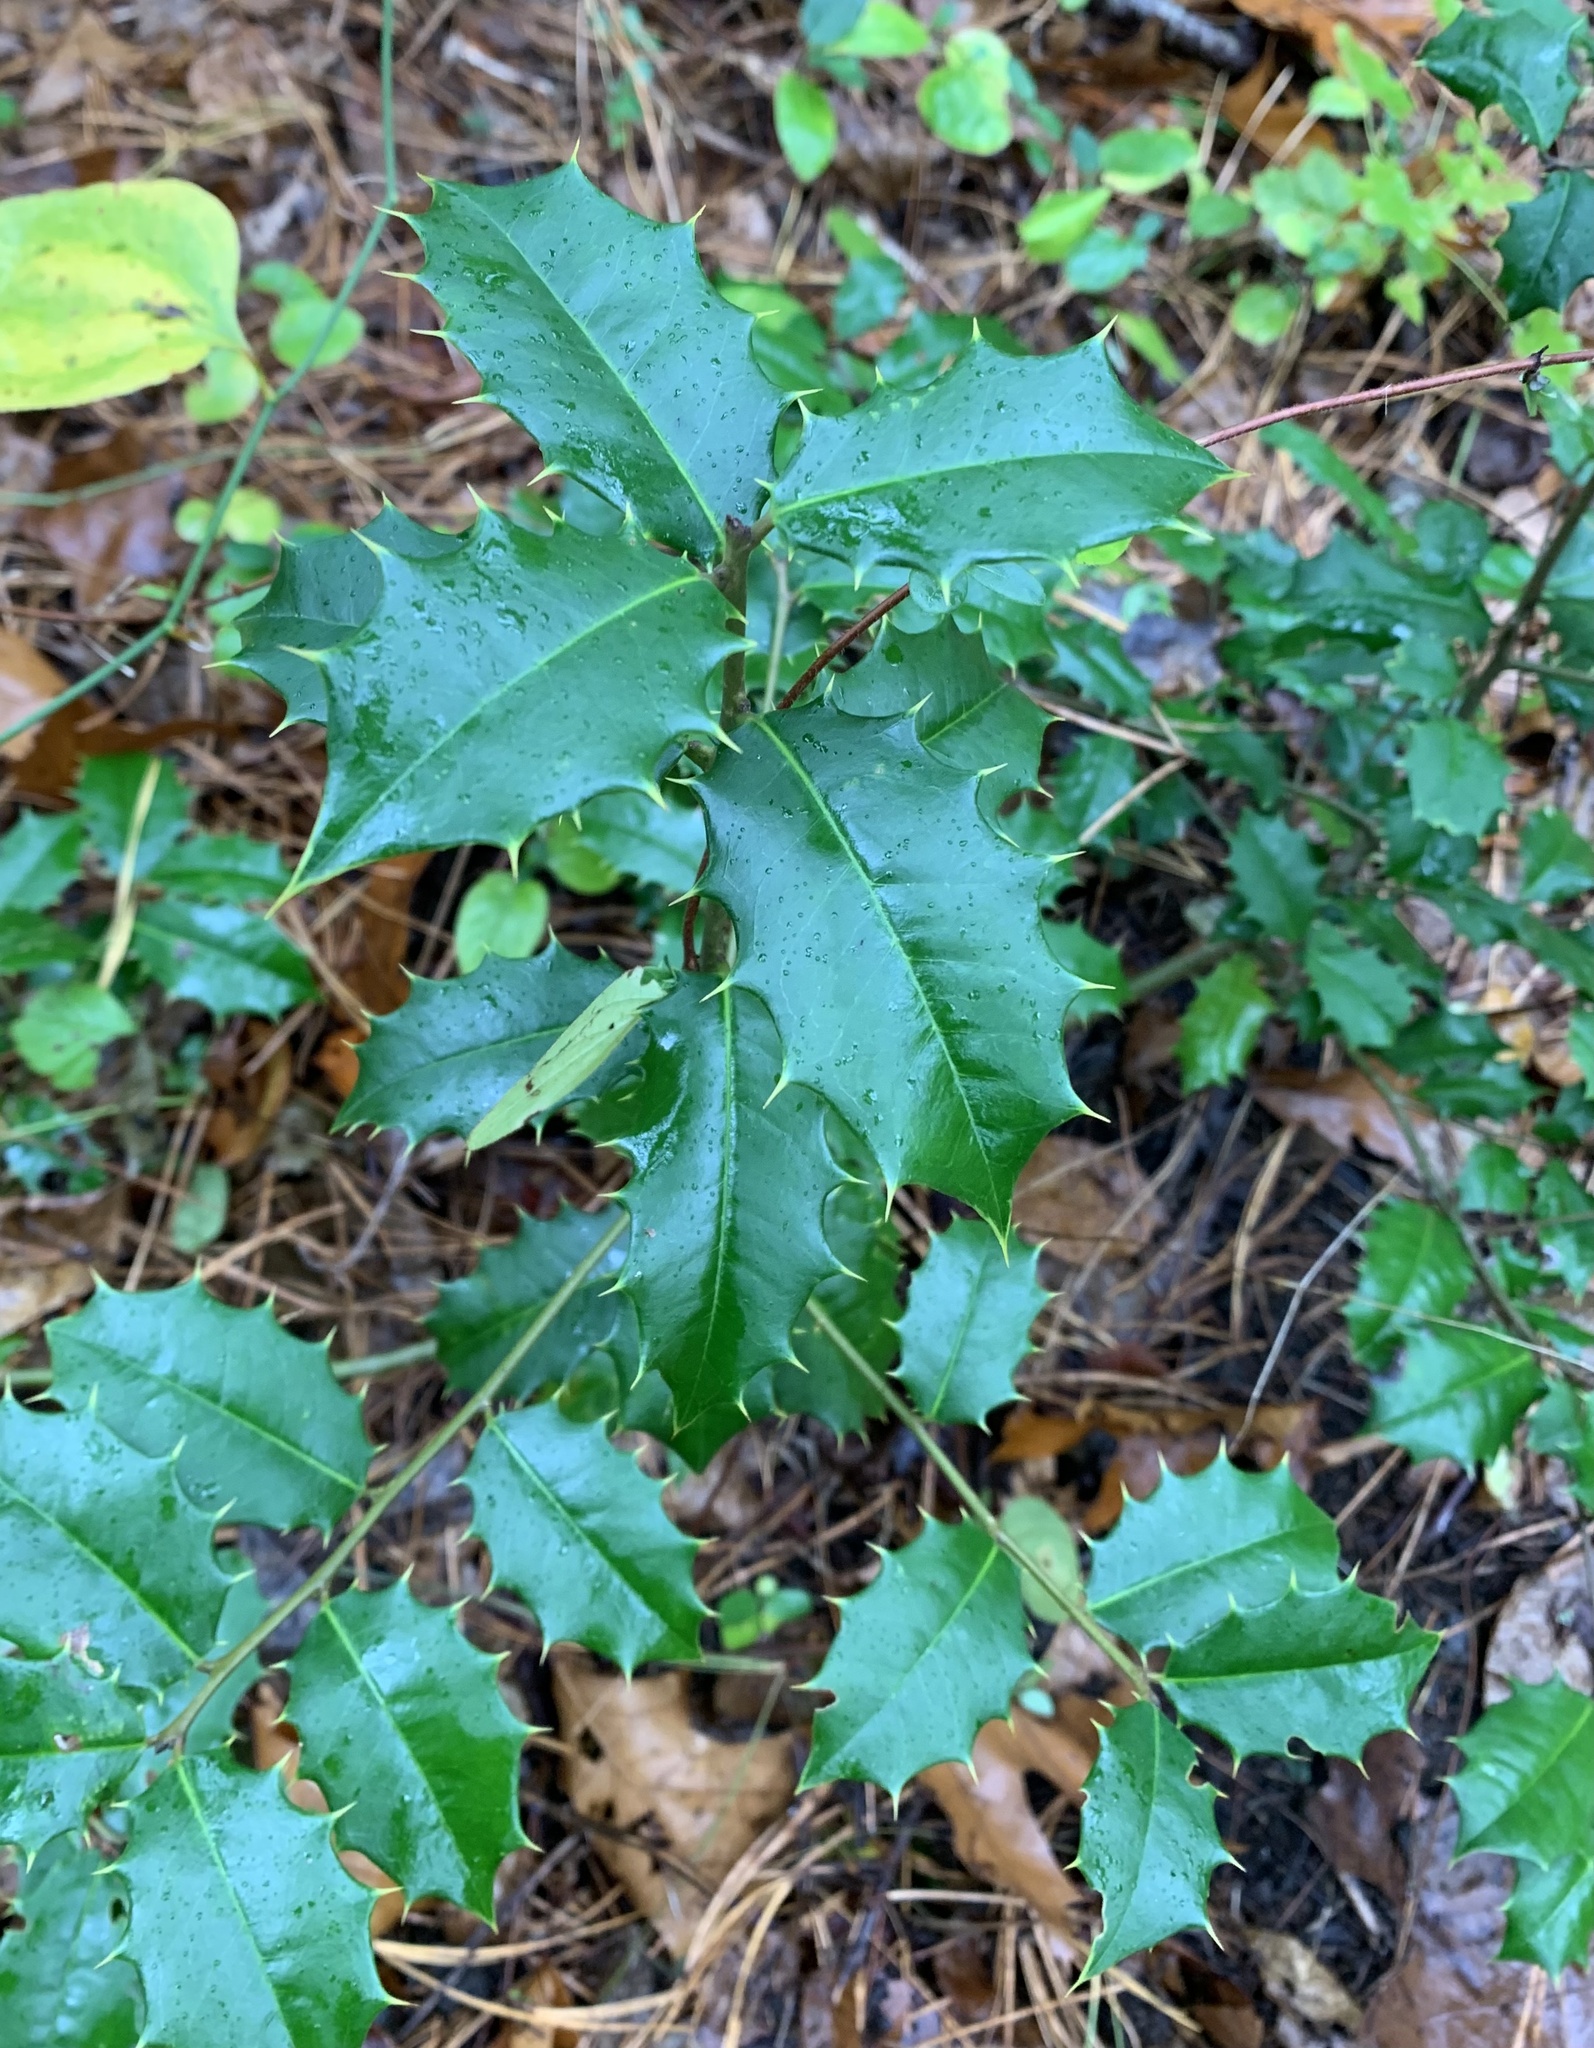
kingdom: Plantae
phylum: Tracheophyta
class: Magnoliopsida
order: Aquifoliales
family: Aquifoliaceae
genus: Ilex
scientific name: Ilex opaca
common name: American holly
